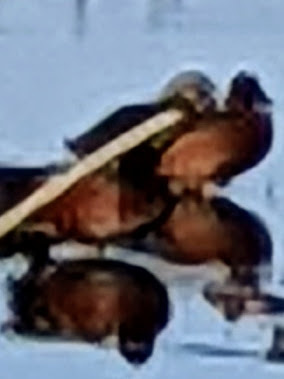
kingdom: Animalia
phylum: Chordata
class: Aves
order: Anseriformes
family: Anatidae
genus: Spatula
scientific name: Spatula cyanoptera
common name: Cinnamon teal
